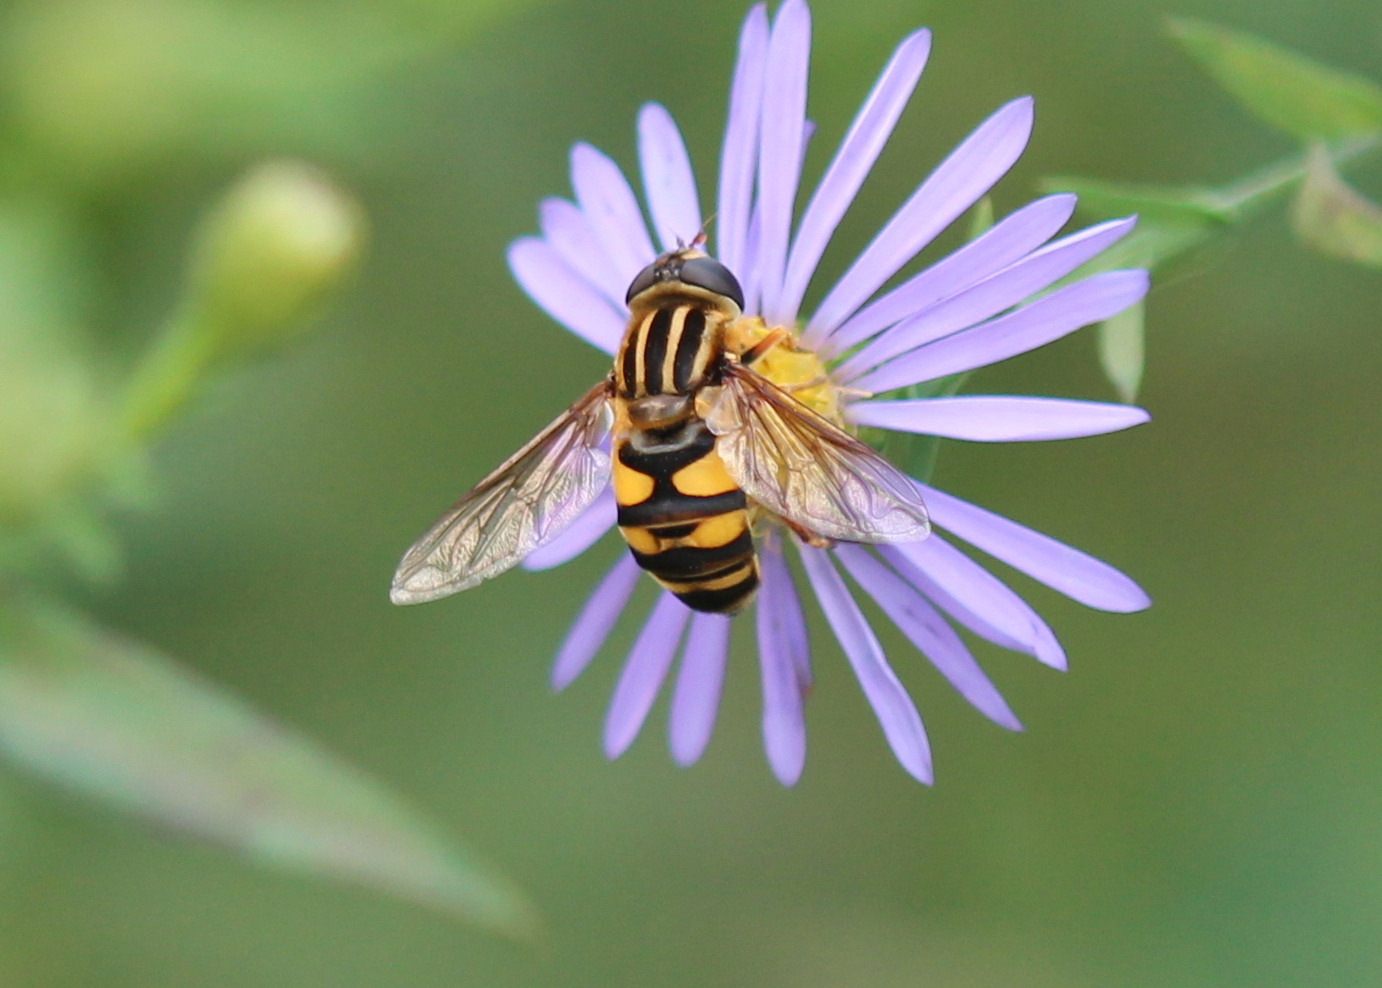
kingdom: Animalia
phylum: Arthropoda
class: Insecta
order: Diptera
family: Syrphidae
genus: Helophilus
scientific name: Helophilus fasciatus
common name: Narrow-headed marsh fly
